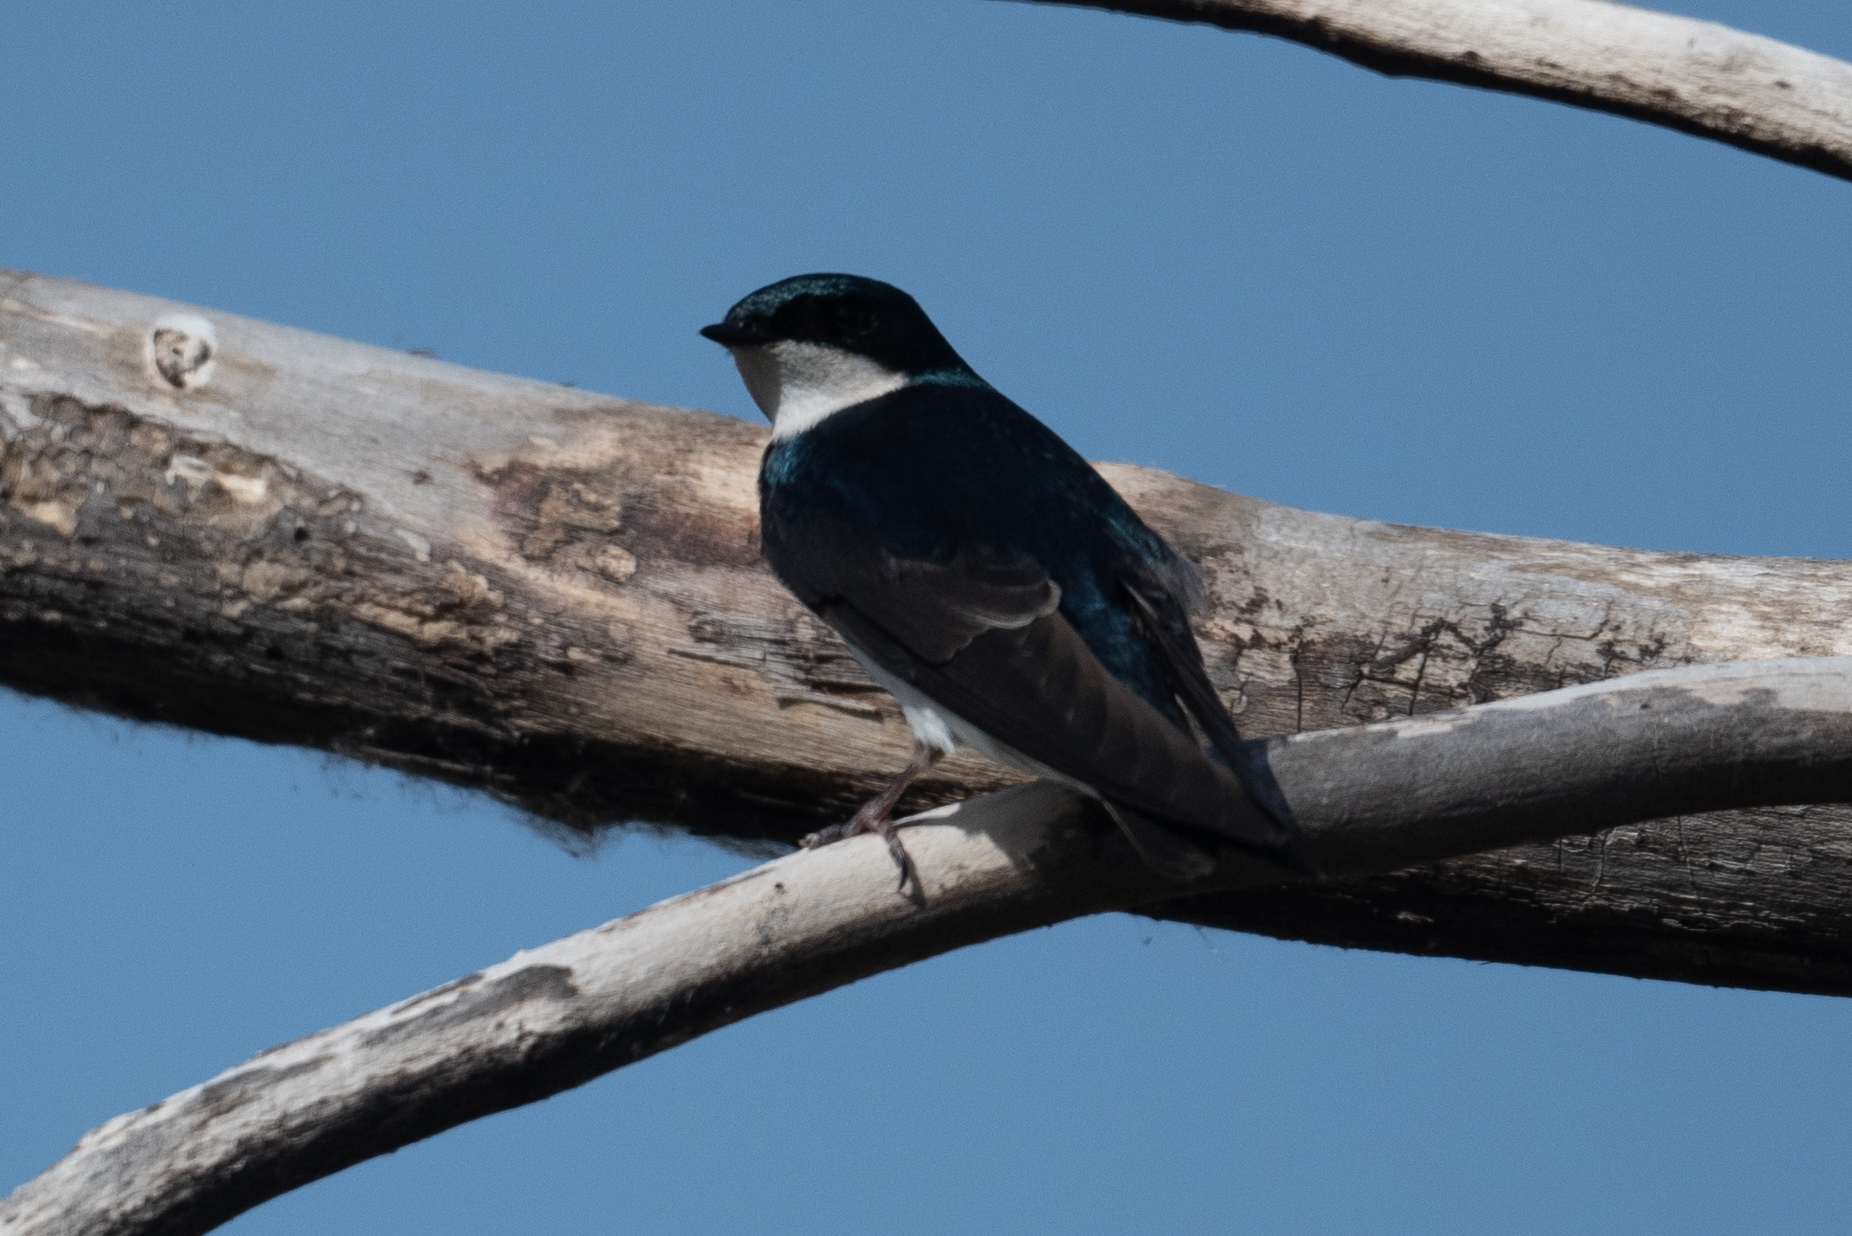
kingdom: Animalia
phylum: Chordata
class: Aves
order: Passeriformes
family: Hirundinidae
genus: Tachycineta
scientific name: Tachycineta bicolor
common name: Tree swallow
